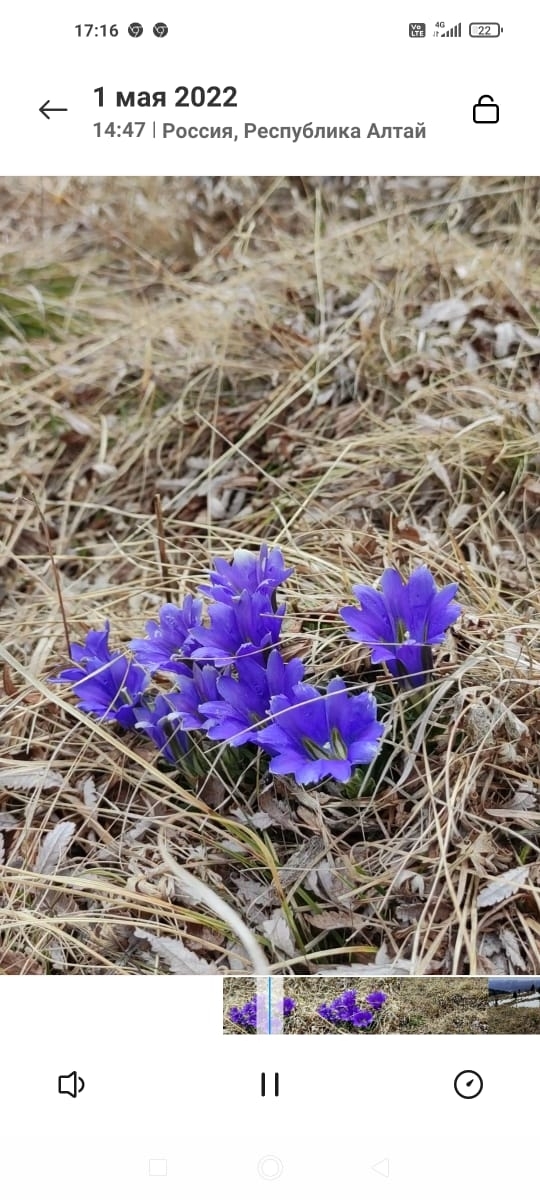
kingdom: Plantae
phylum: Tracheophyta
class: Magnoliopsida
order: Gentianales
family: Gentianaceae
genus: Gentiana
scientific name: Gentiana grandiflora
